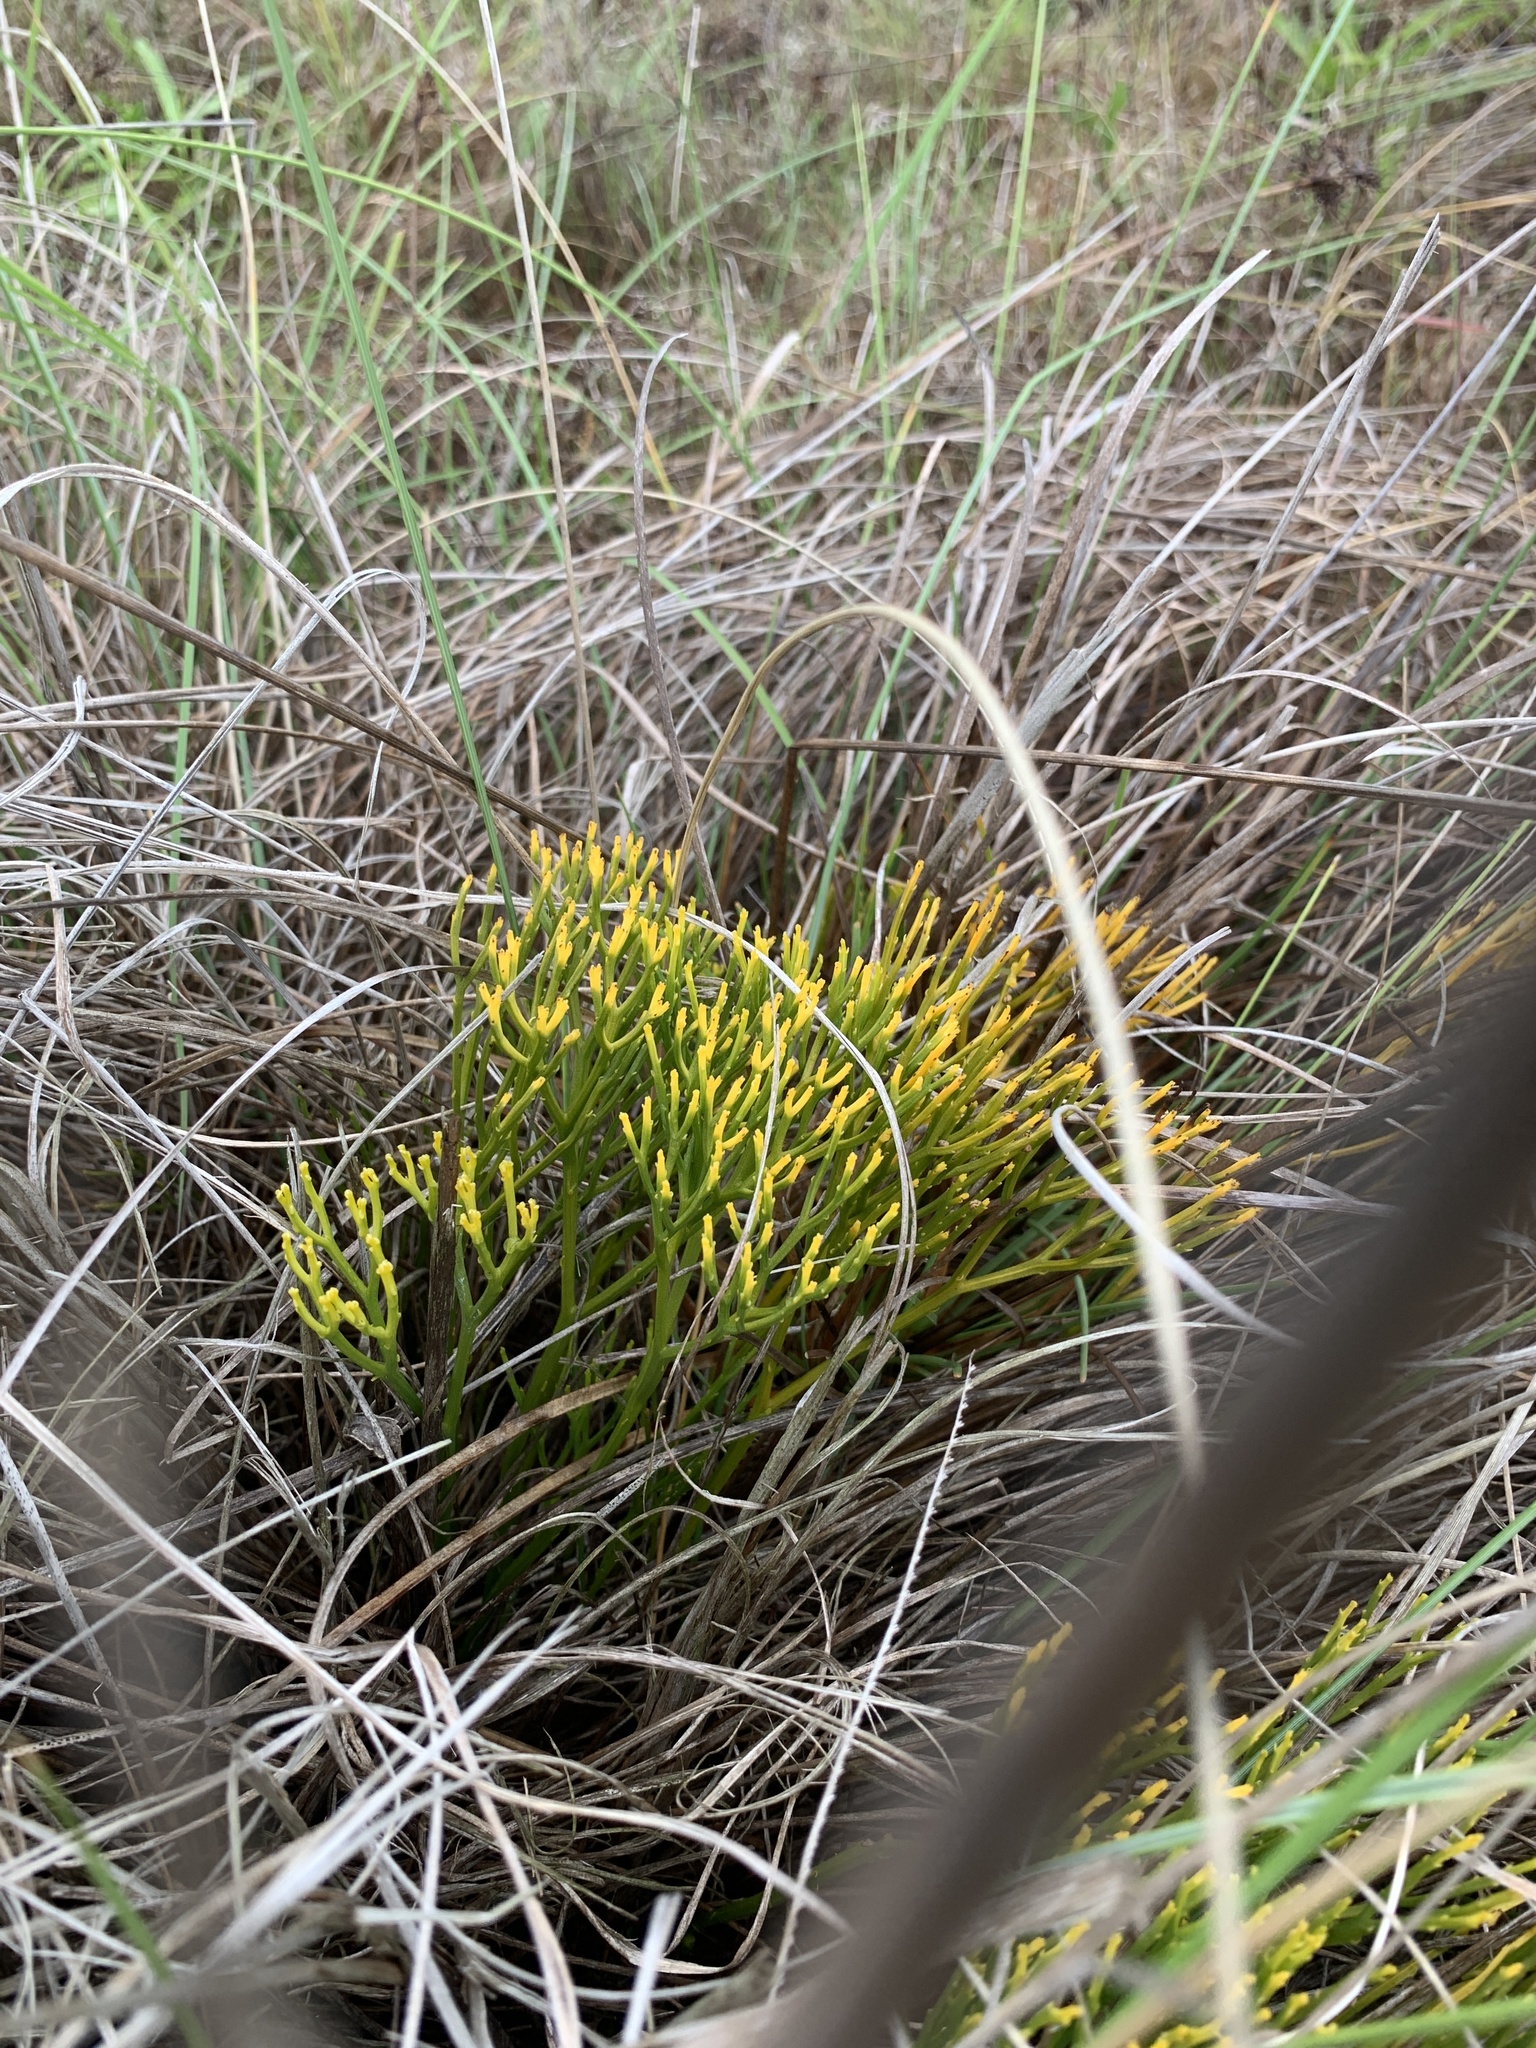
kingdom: Plantae
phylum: Tracheophyta
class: Polypodiopsida
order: Psilotales
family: Psilotaceae
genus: Psilotum
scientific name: Psilotum nudum
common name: Skeleton fork fern
